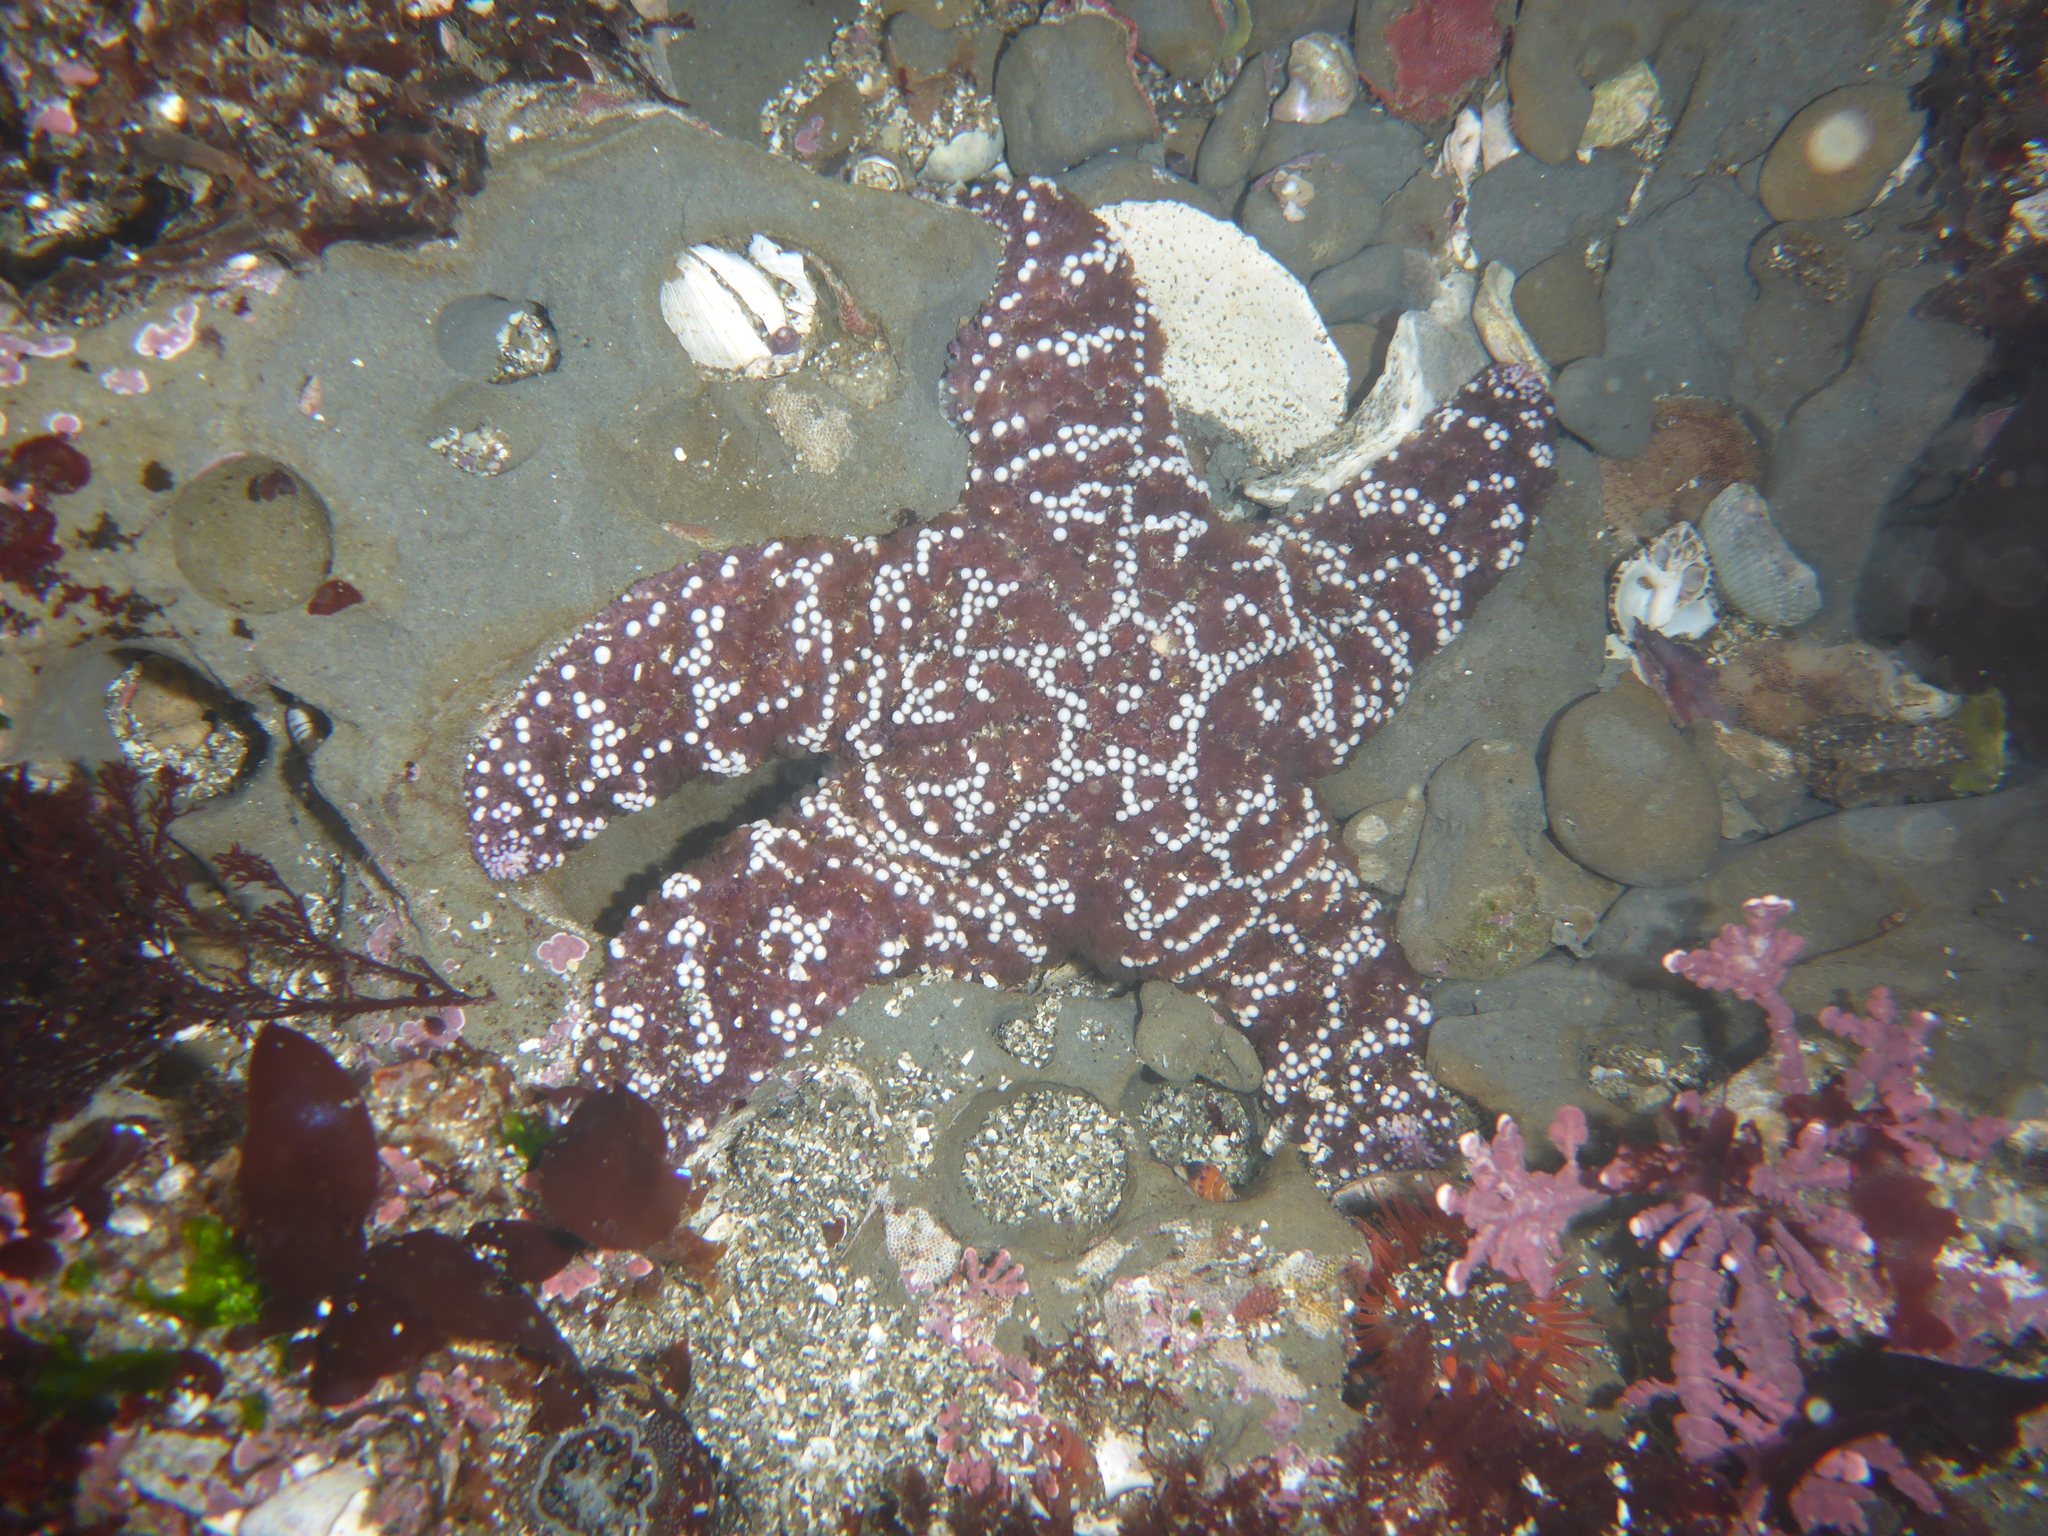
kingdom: Animalia
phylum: Echinodermata
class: Asteroidea
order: Forcipulatida
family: Asteriidae
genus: Pisaster
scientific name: Pisaster ochraceus
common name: Ochre stars
